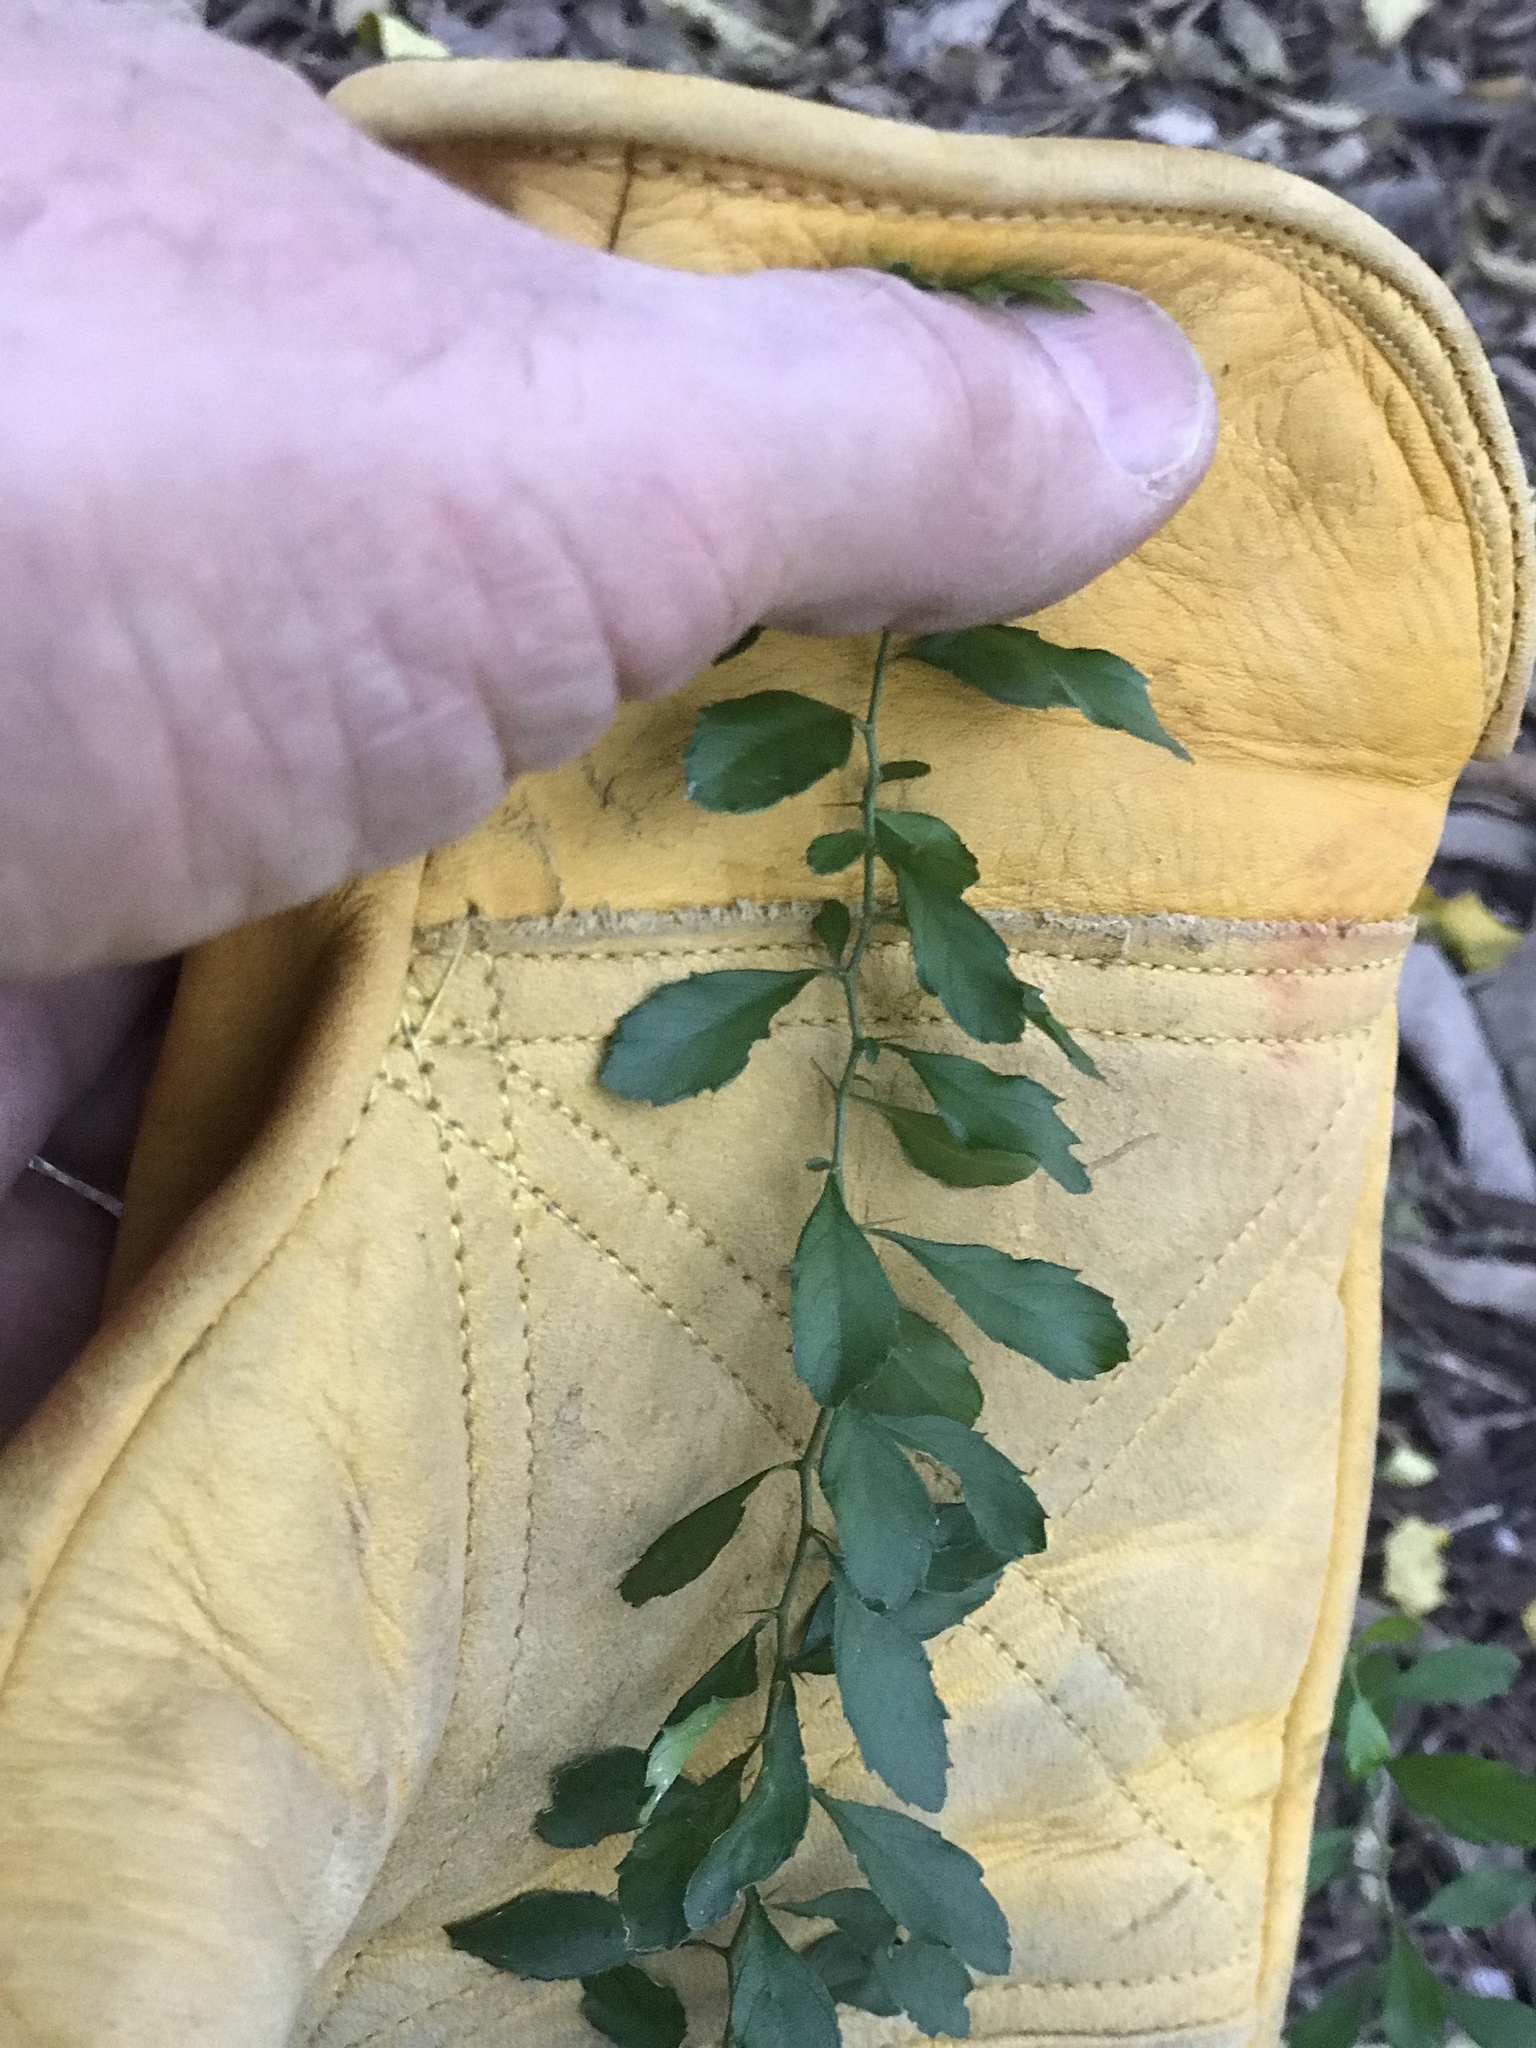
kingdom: Plantae
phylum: Tracheophyta
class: Magnoliopsida
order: Rosales
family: Rhamnaceae
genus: Condalia
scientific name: Condalia hookeri
